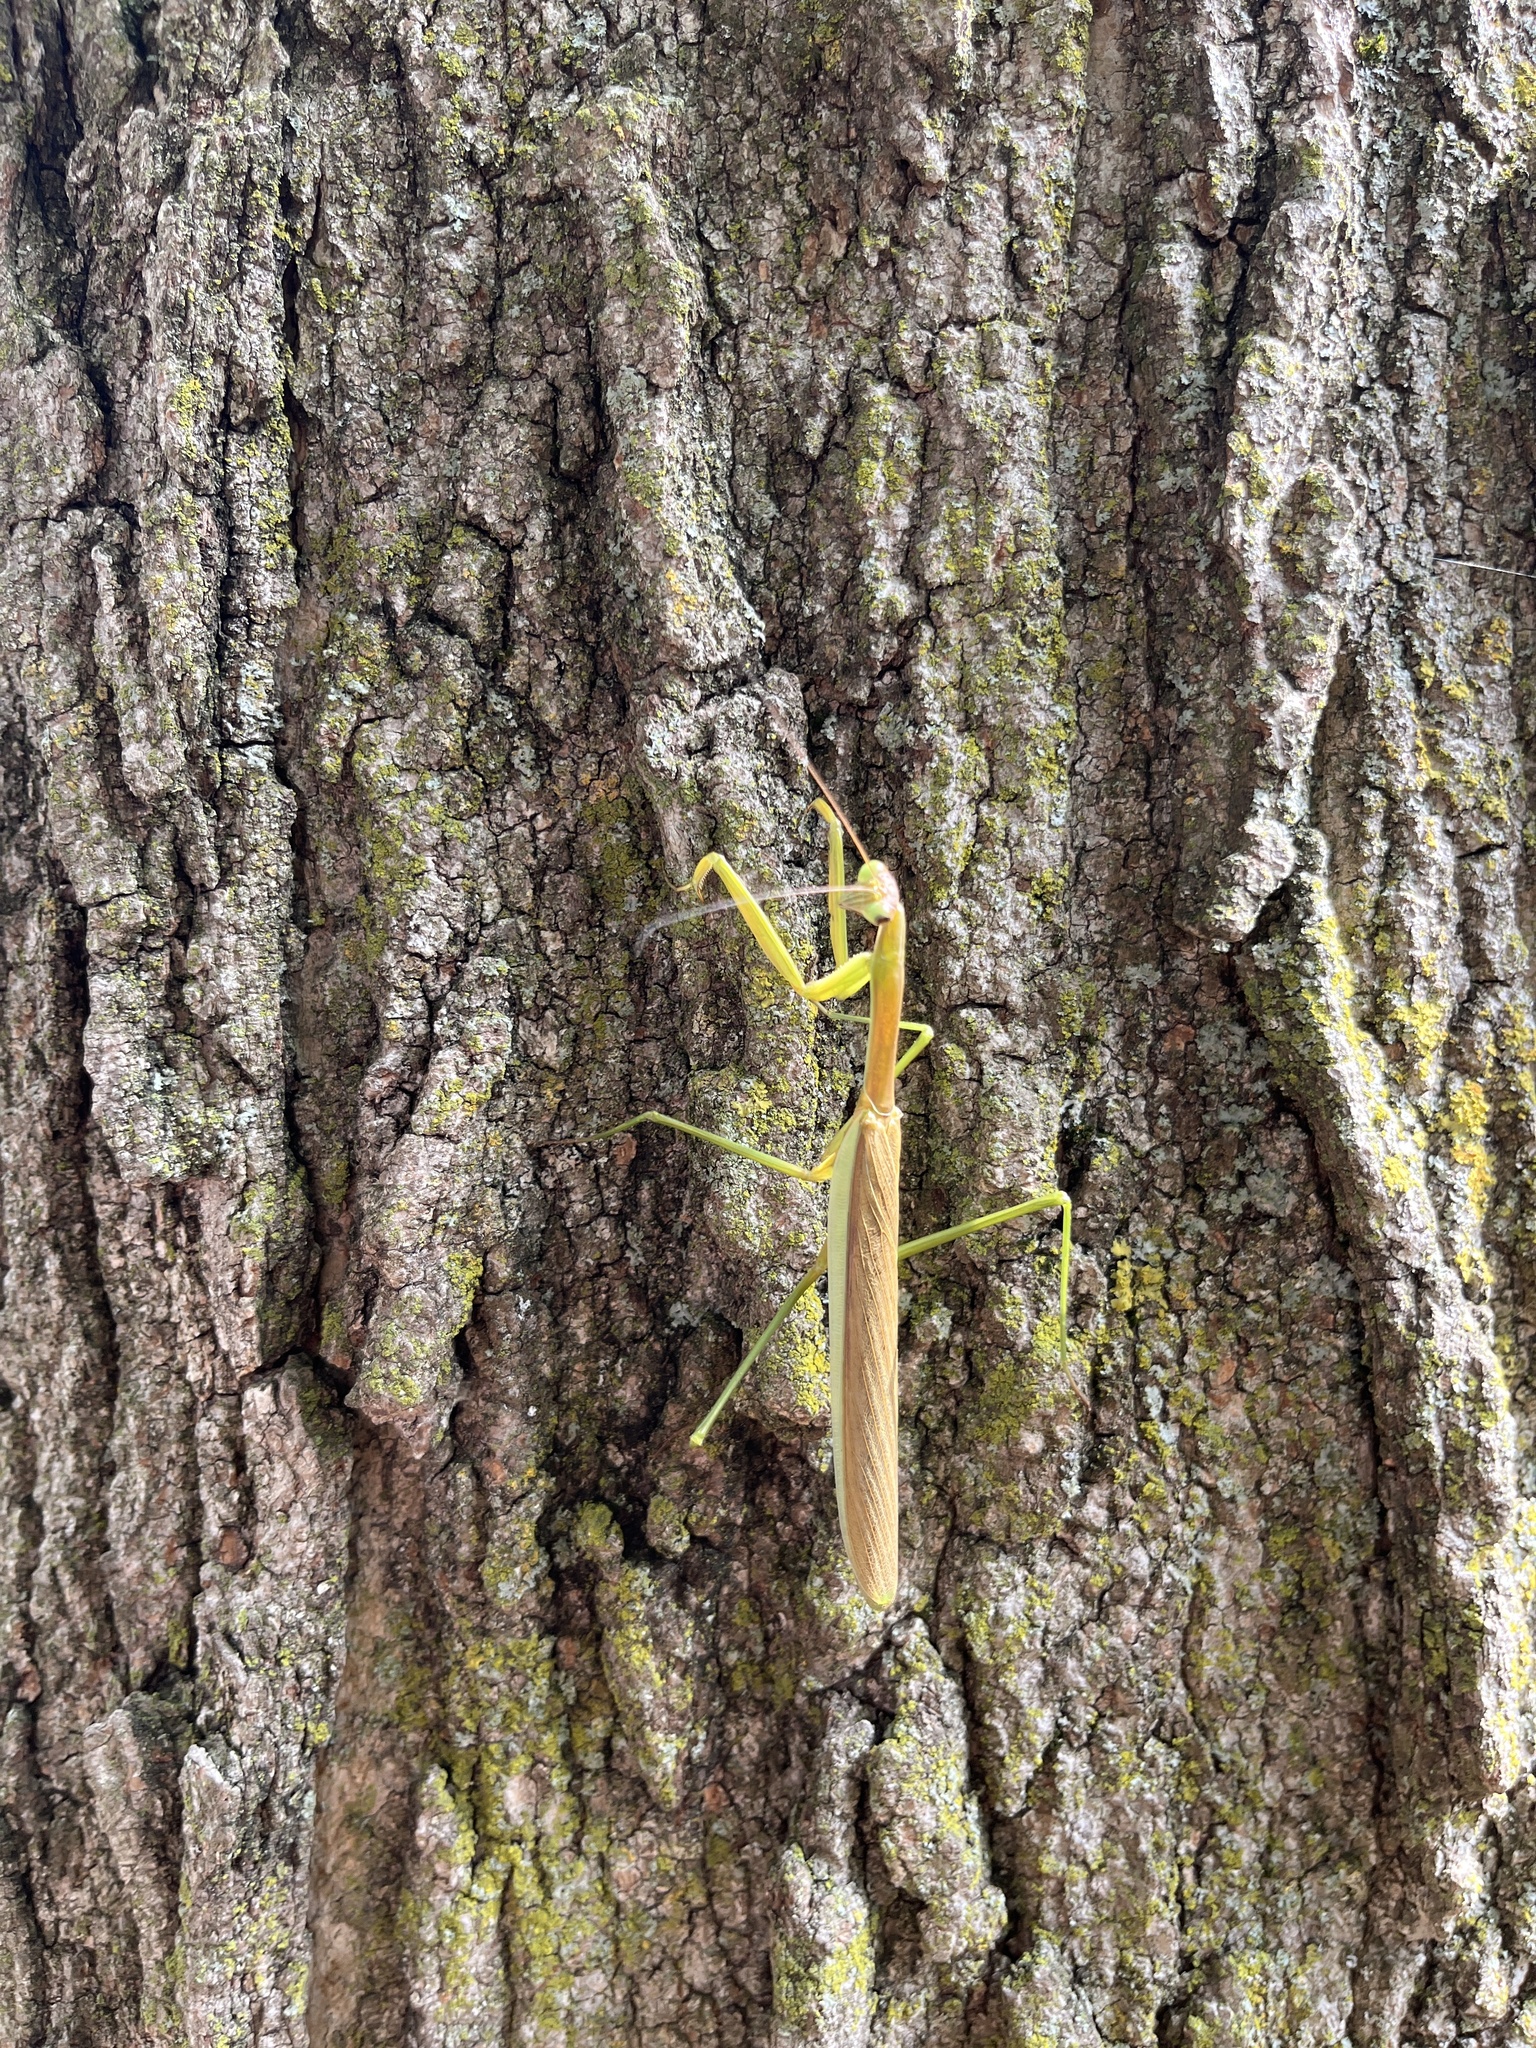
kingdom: Animalia
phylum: Arthropoda
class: Insecta
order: Mantodea
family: Mantidae
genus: Tenodera
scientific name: Tenodera sinensis
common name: Chinese mantis
